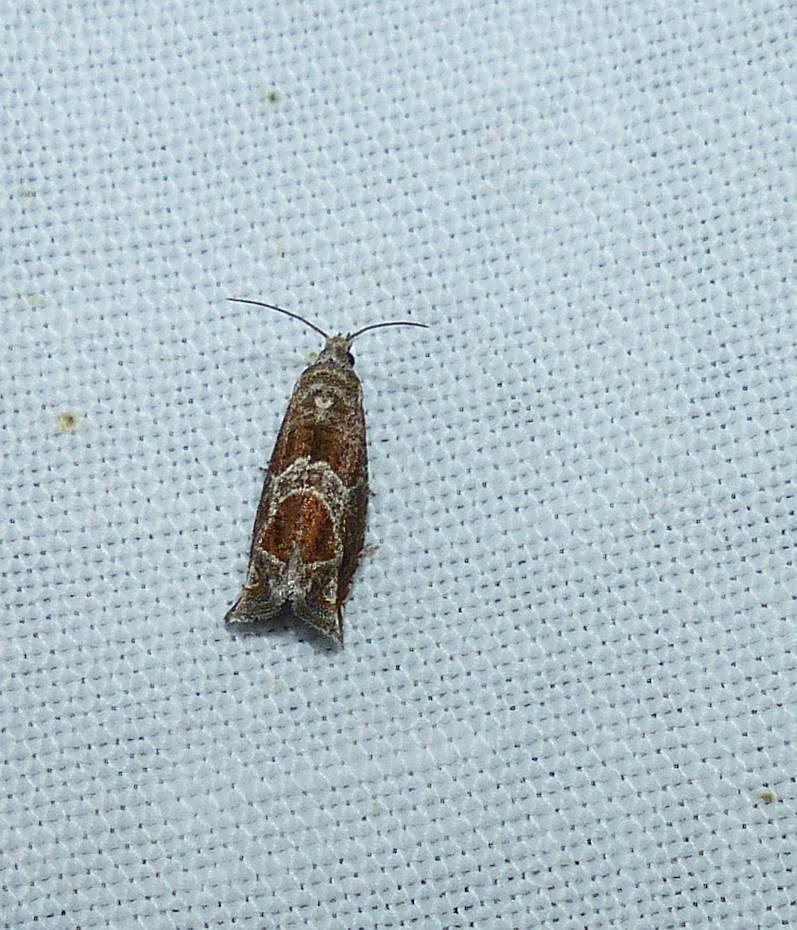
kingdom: Animalia
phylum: Arthropoda
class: Insecta
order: Lepidoptera
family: Tortricidae
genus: Sonia
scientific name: Sonia canadana
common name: Canadian sonia moth
